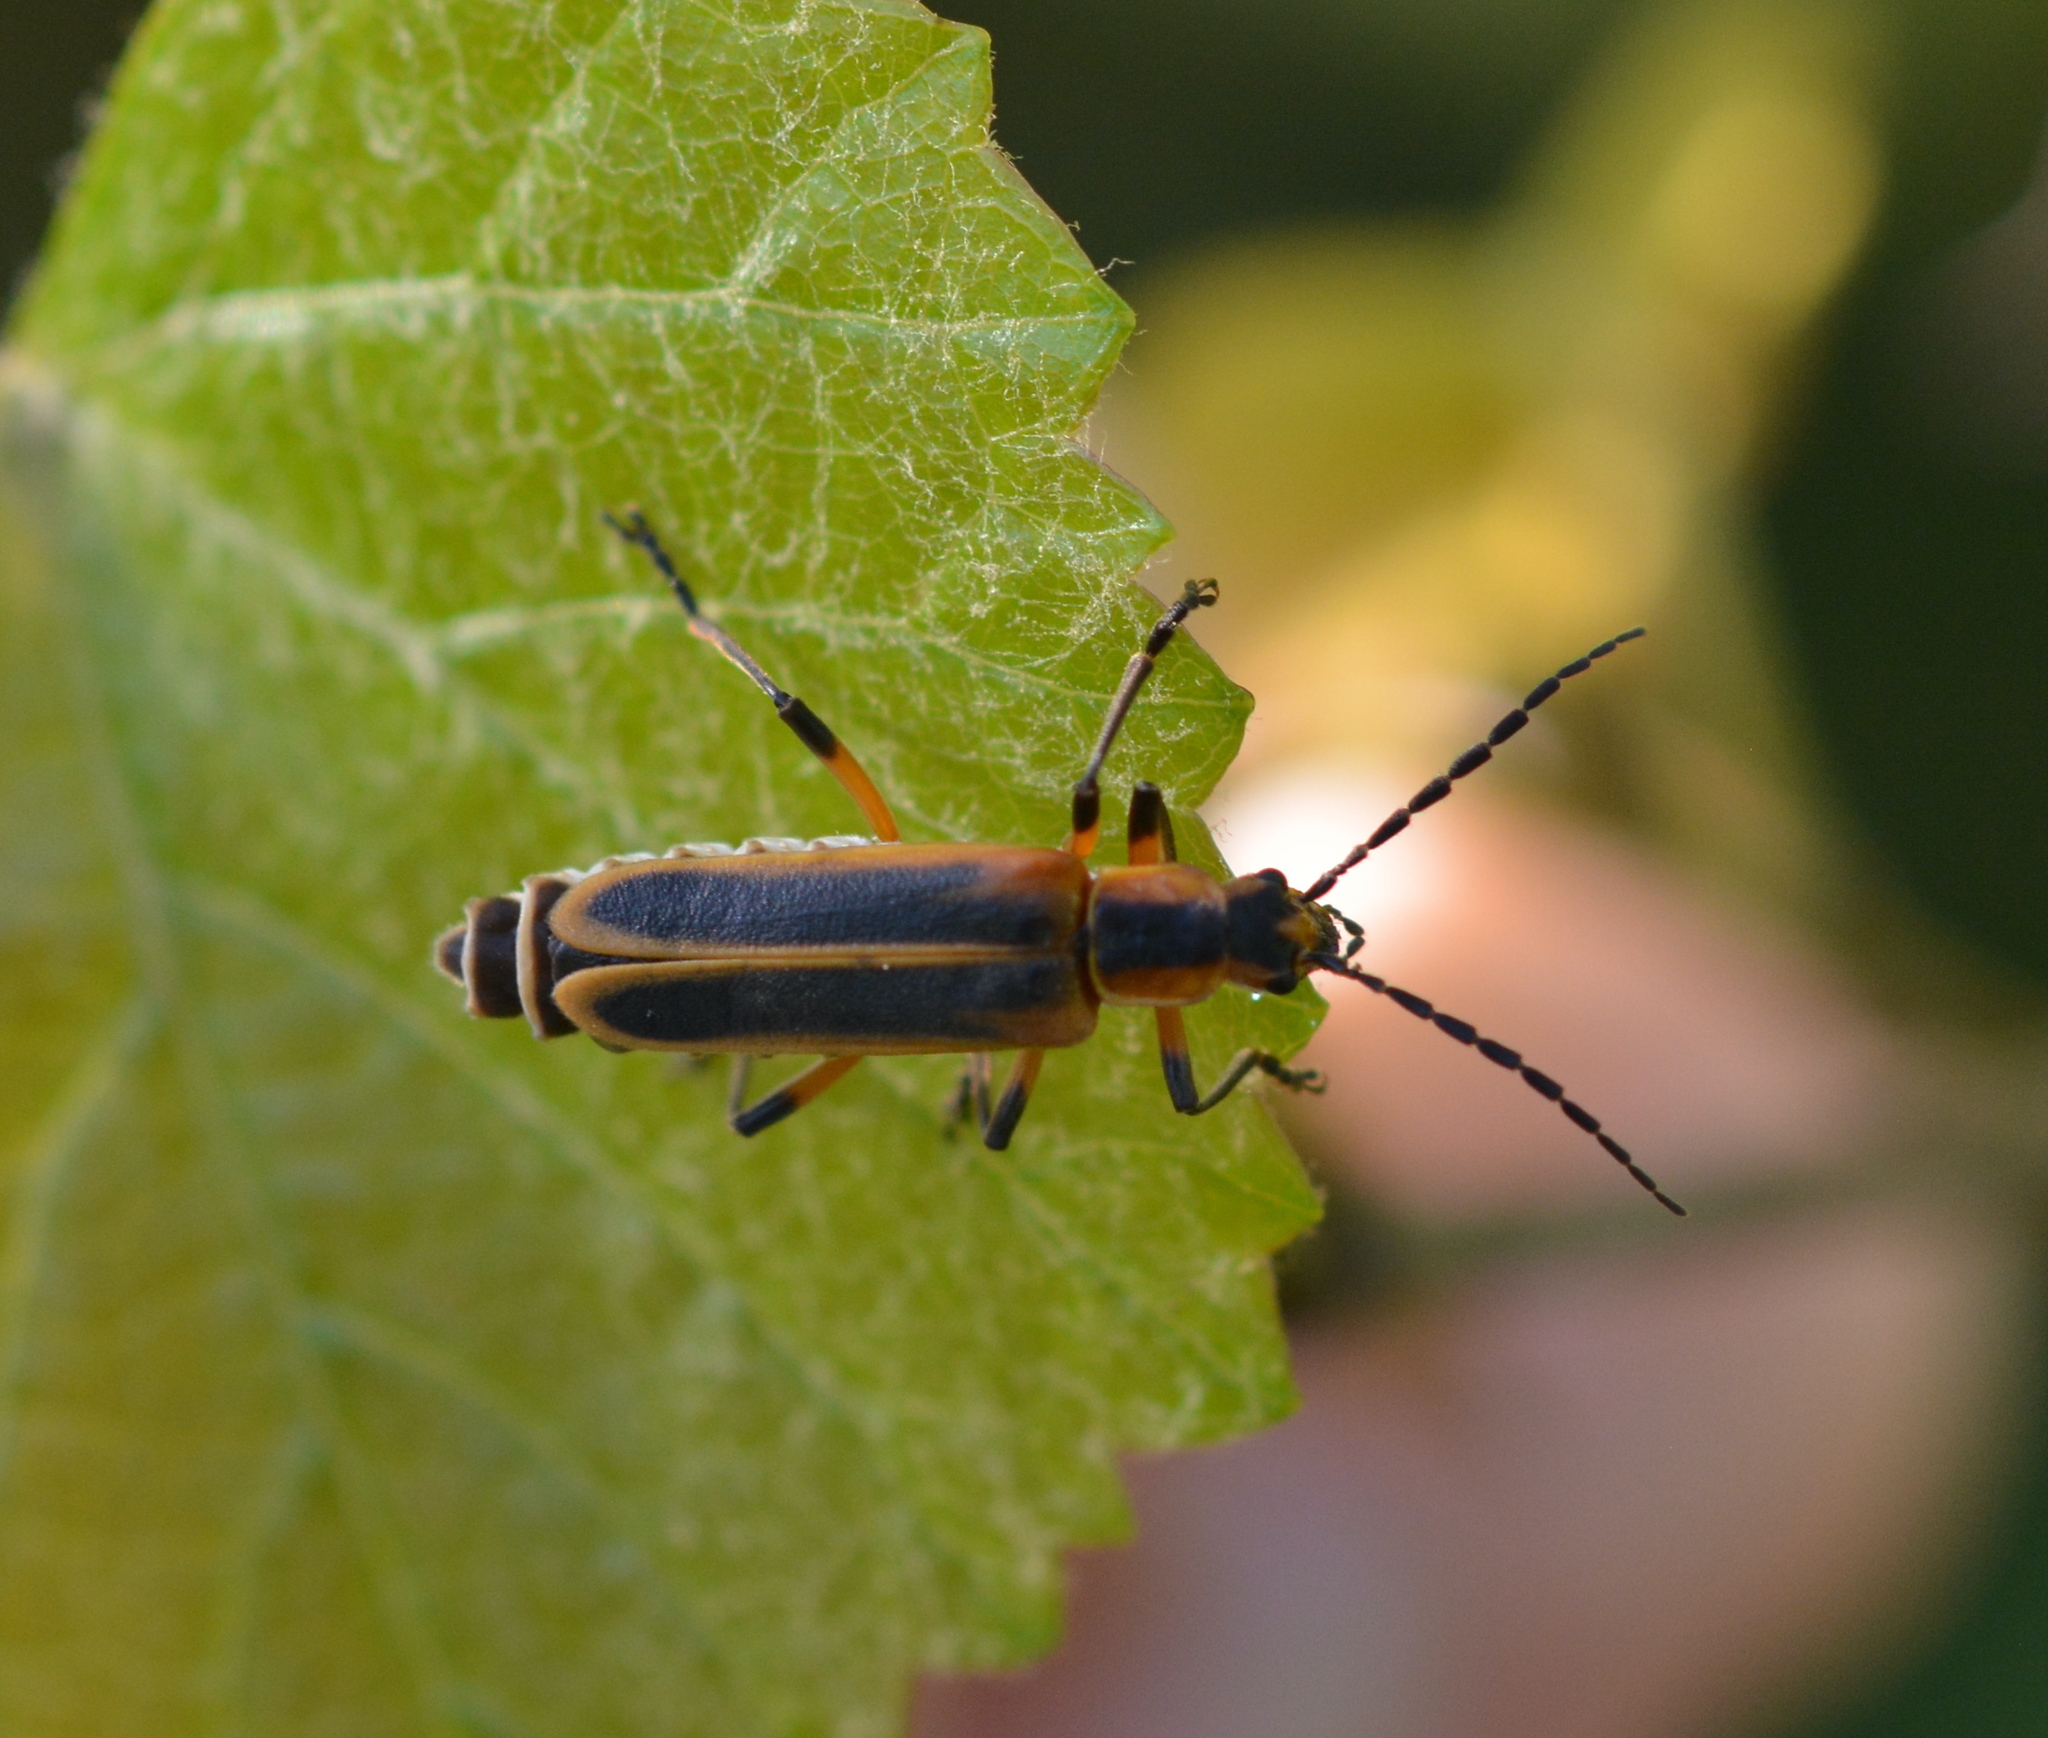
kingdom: Animalia
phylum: Arthropoda
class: Insecta
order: Coleoptera
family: Cantharidae
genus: Chauliognathus
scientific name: Chauliognathus marginatus
